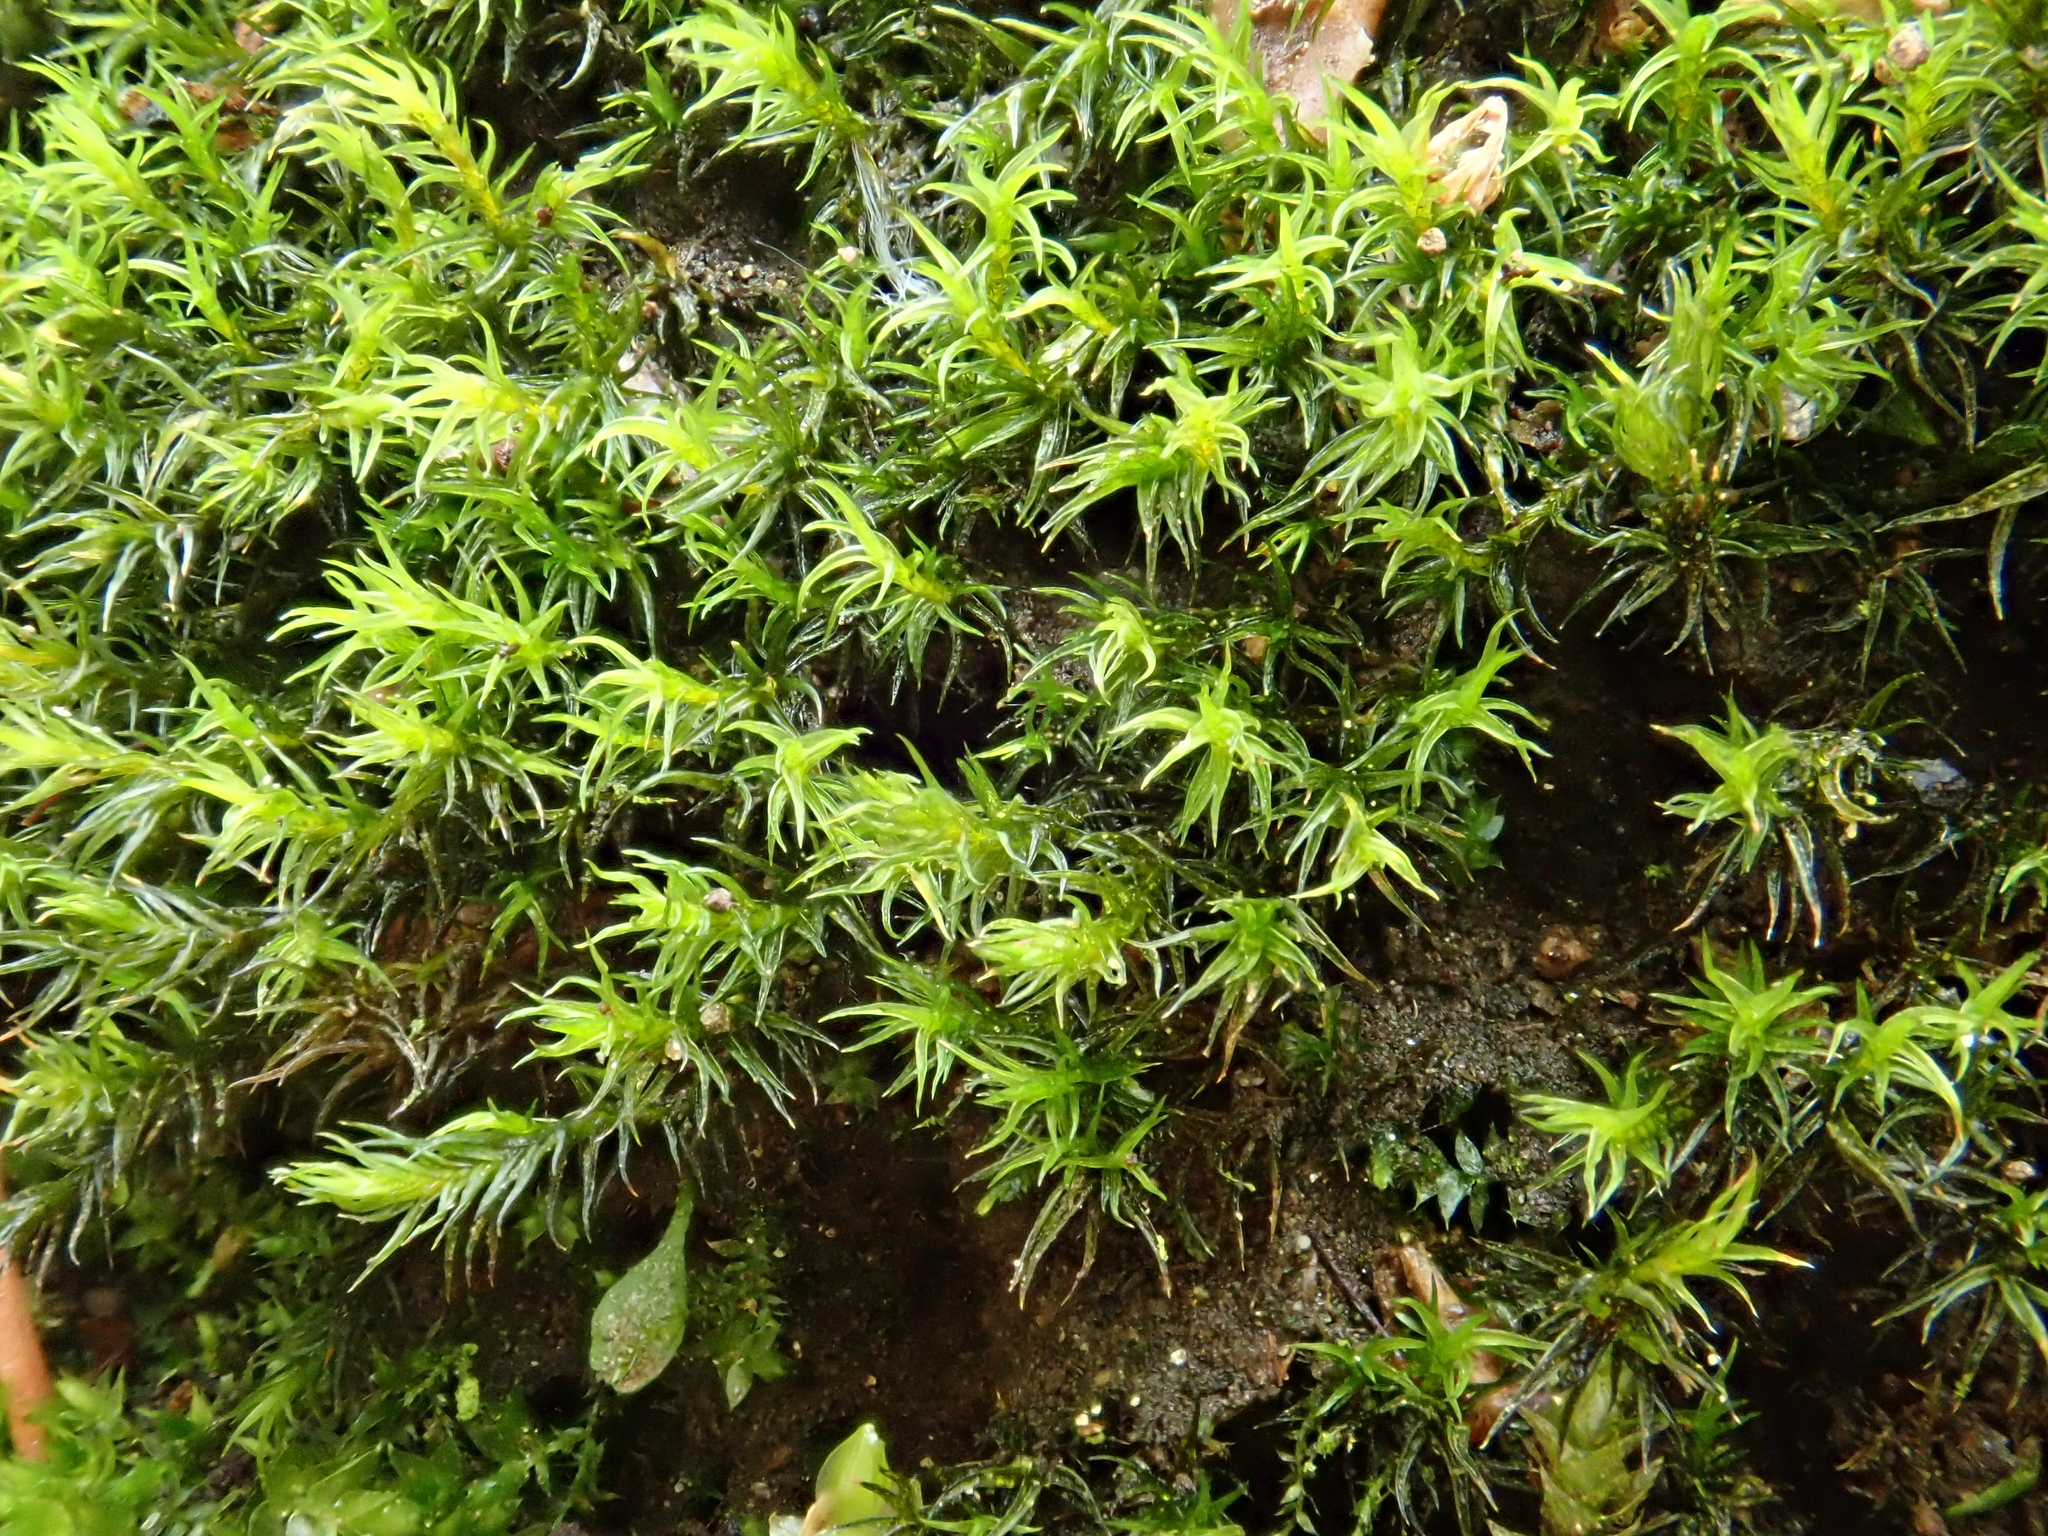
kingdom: Plantae
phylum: Bryophyta
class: Bryopsida
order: Grimmiales
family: Grimmiaceae
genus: Grimmia
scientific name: Grimmia hartmanii
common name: Hartman's grimmia
